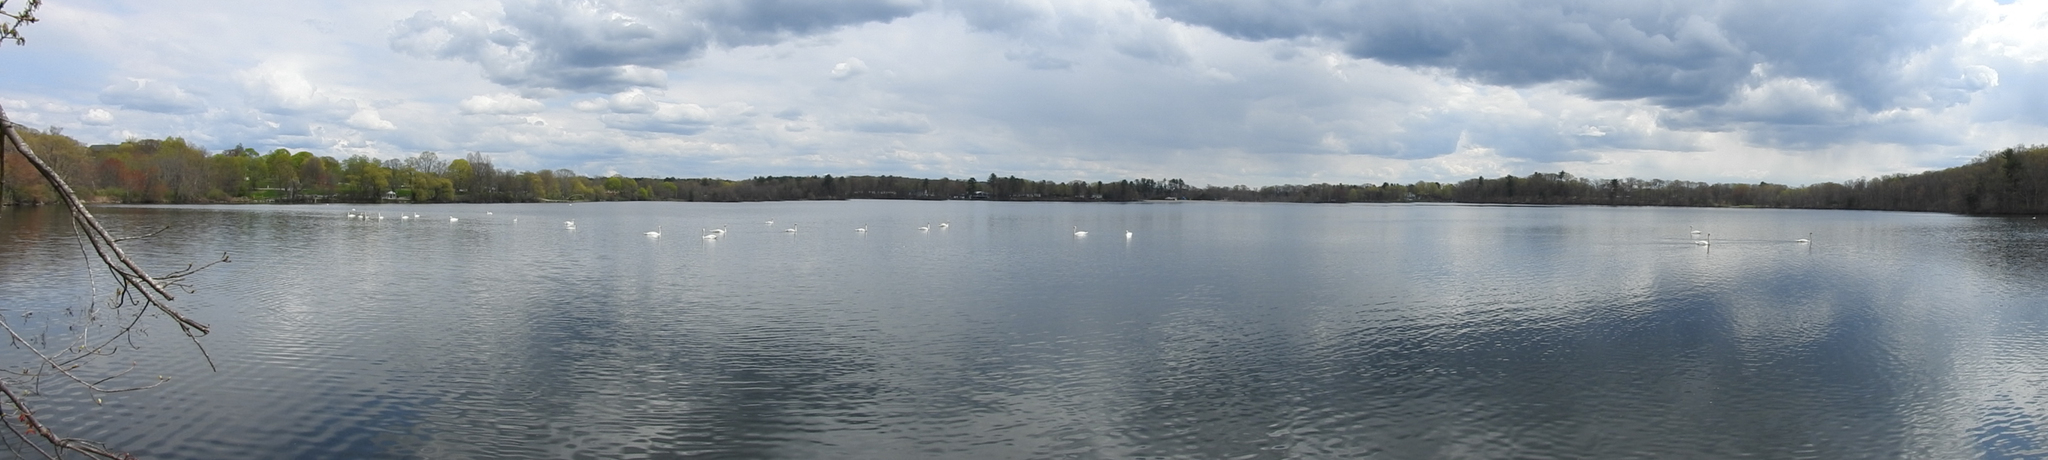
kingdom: Animalia
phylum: Chordata
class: Aves
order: Anseriformes
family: Anatidae
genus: Cygnus
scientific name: Cygnus olor
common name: Mute swan
